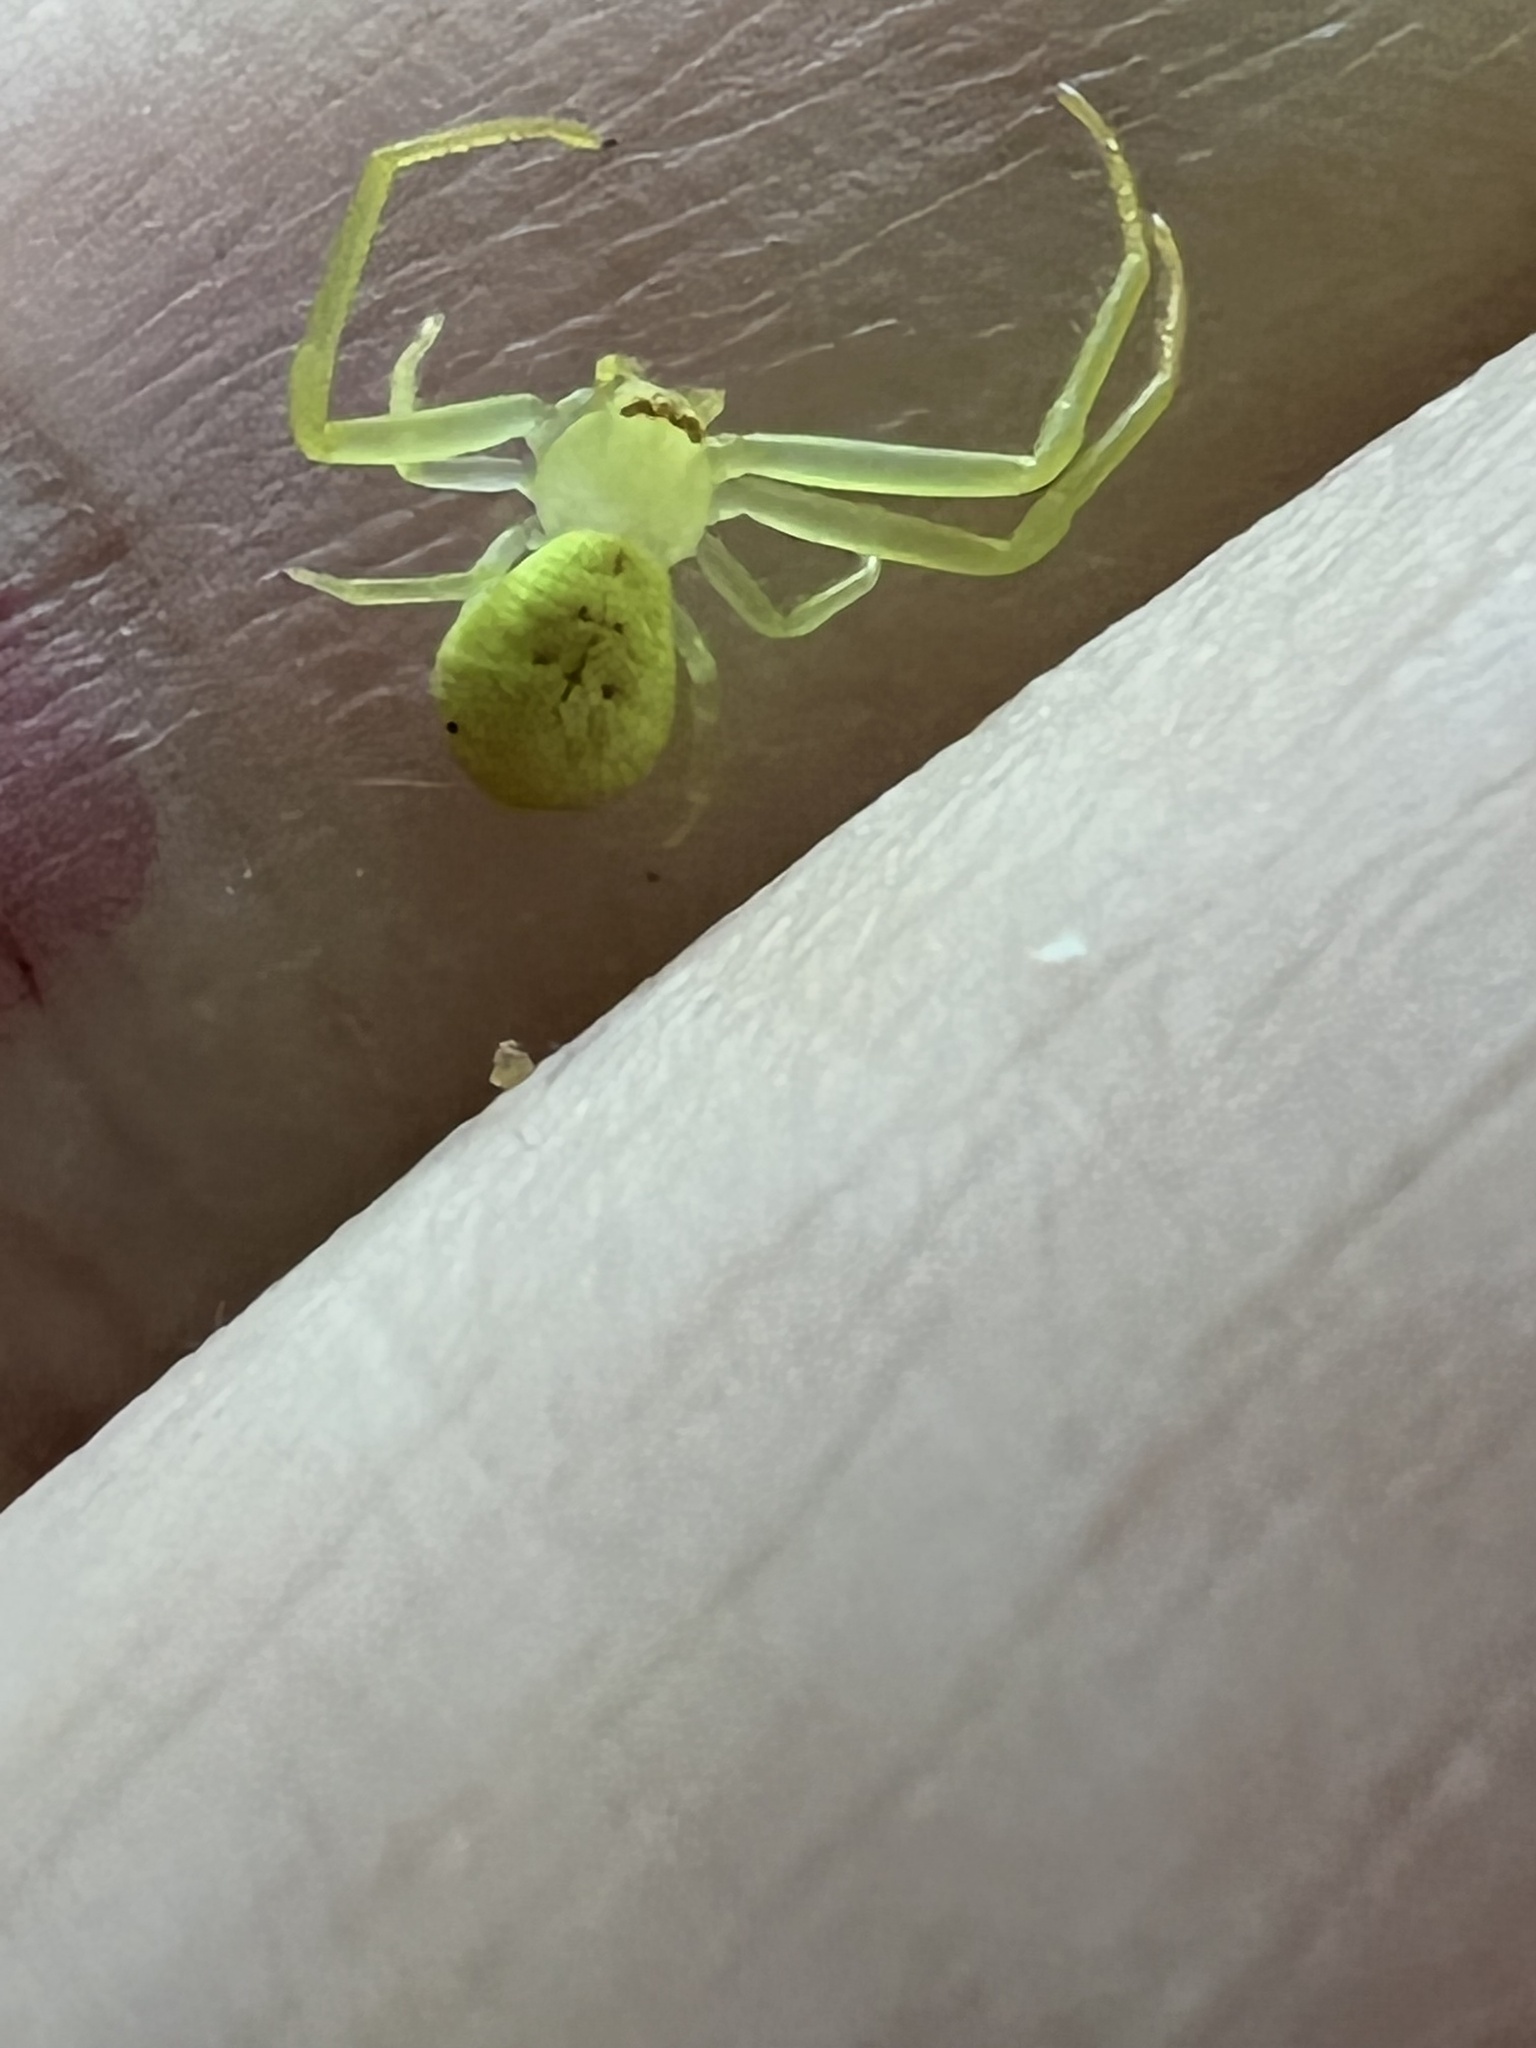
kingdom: Animalia
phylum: Arthropoda
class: Arachnida
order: Araneae
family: Thomisidae
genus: Misumessus
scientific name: Misumessus oblongus
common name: American green crab spider
